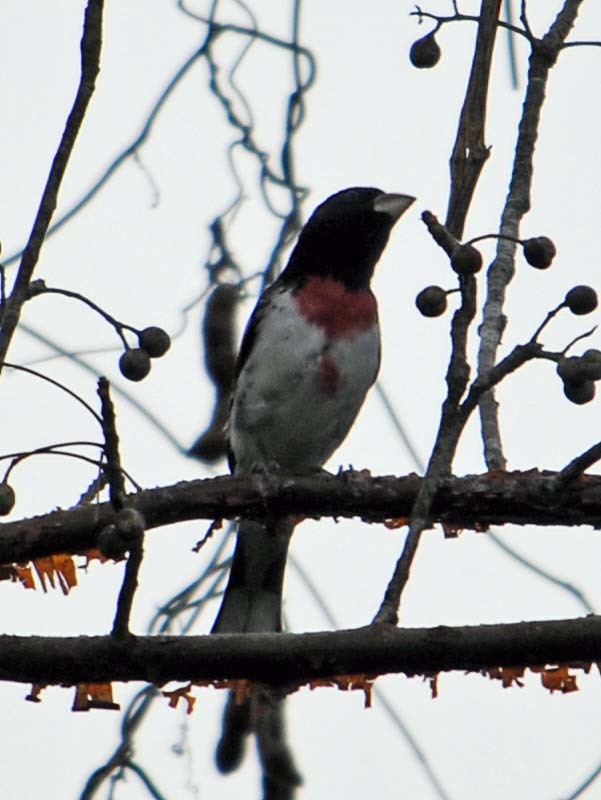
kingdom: Animalia
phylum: Chordata
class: Aves
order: Passeriformes
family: Cardinalidae
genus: Pheucticus
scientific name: Pheucticus ludovicianus
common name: Rose-breasted grosbeak
